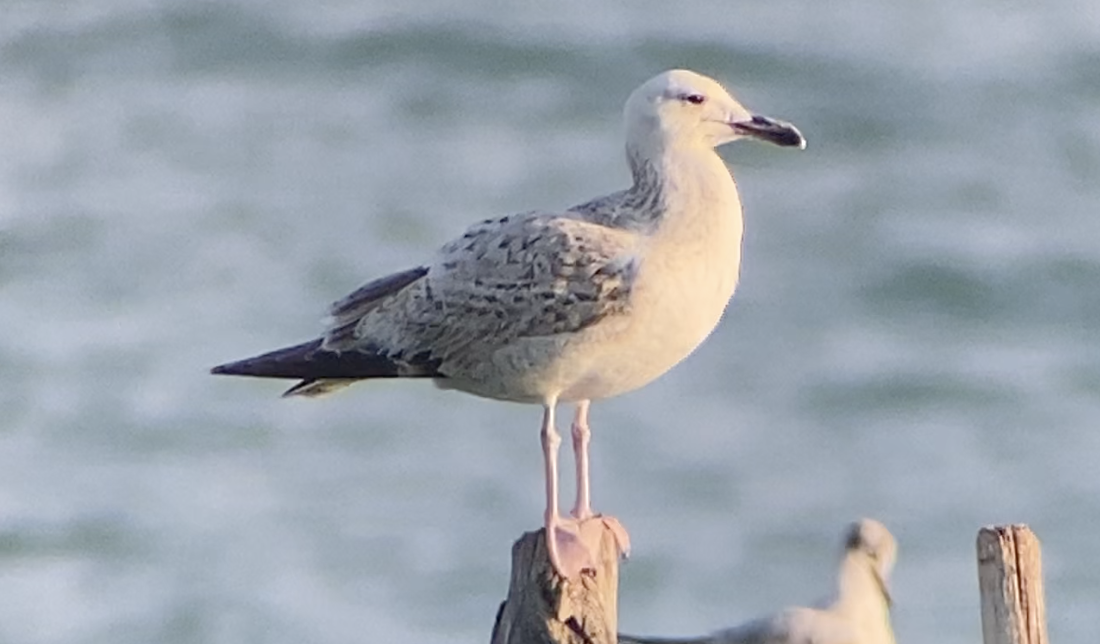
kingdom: Animalia
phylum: Chordata
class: Aves
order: Charadriiformes
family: Laridae
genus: Larus
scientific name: Larus cachinnans
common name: Caspian gull
